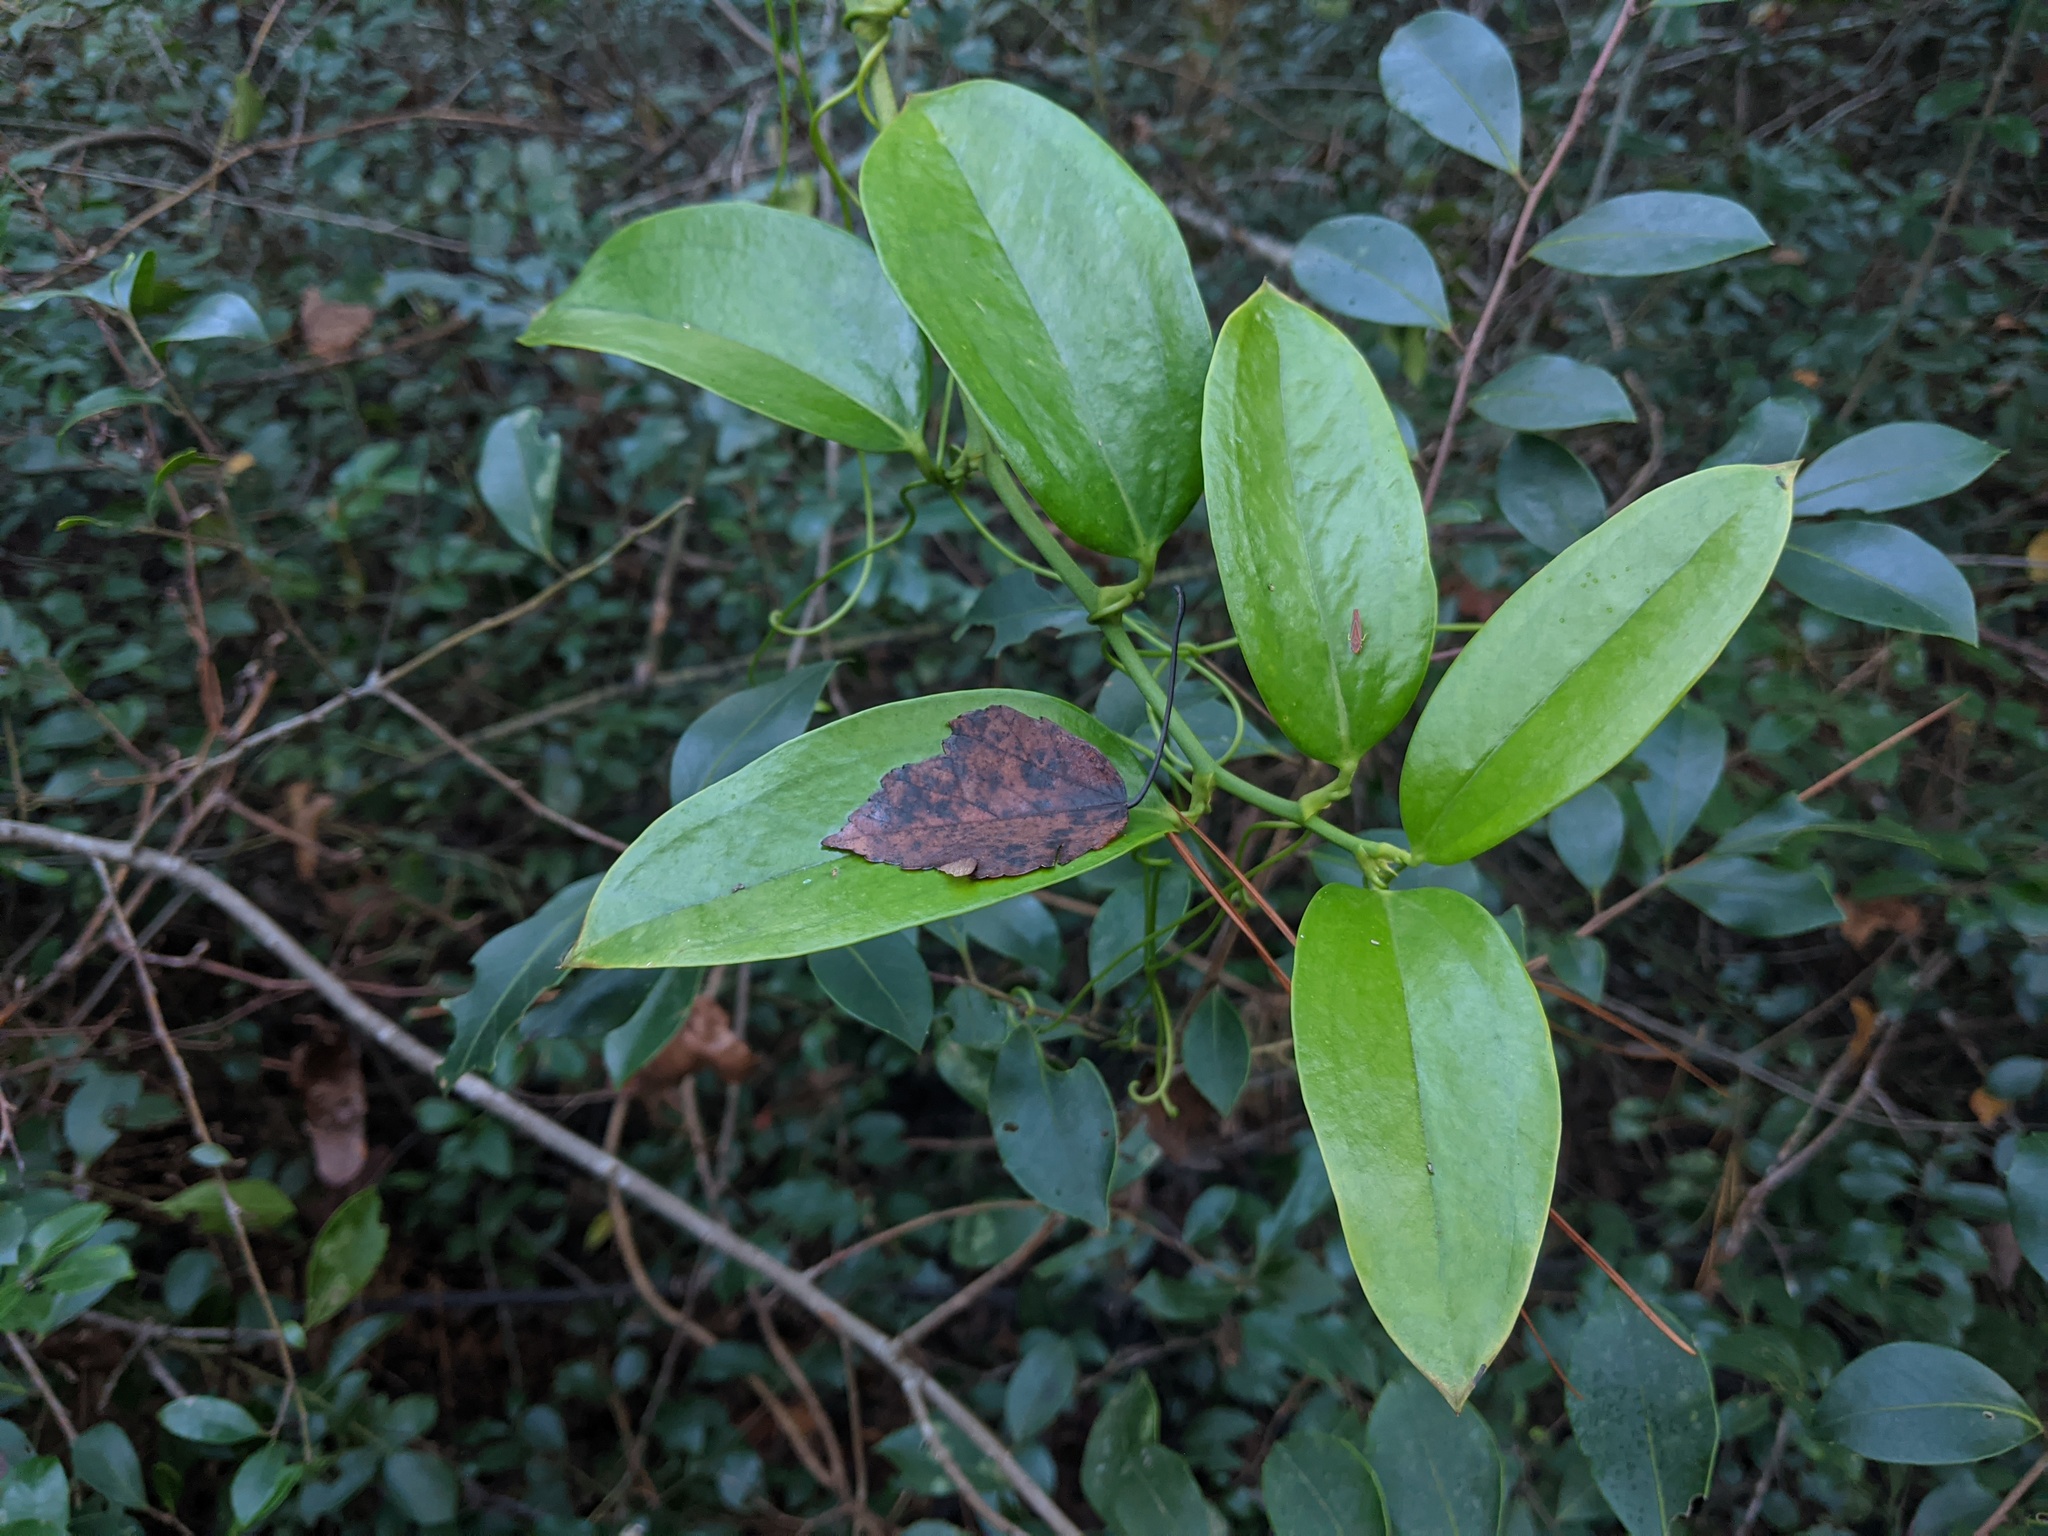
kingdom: Plantae
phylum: Tracheophyta
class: Liliopsida
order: Liliales
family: Smilacaceae
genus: Smilax
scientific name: Smilax maritima
